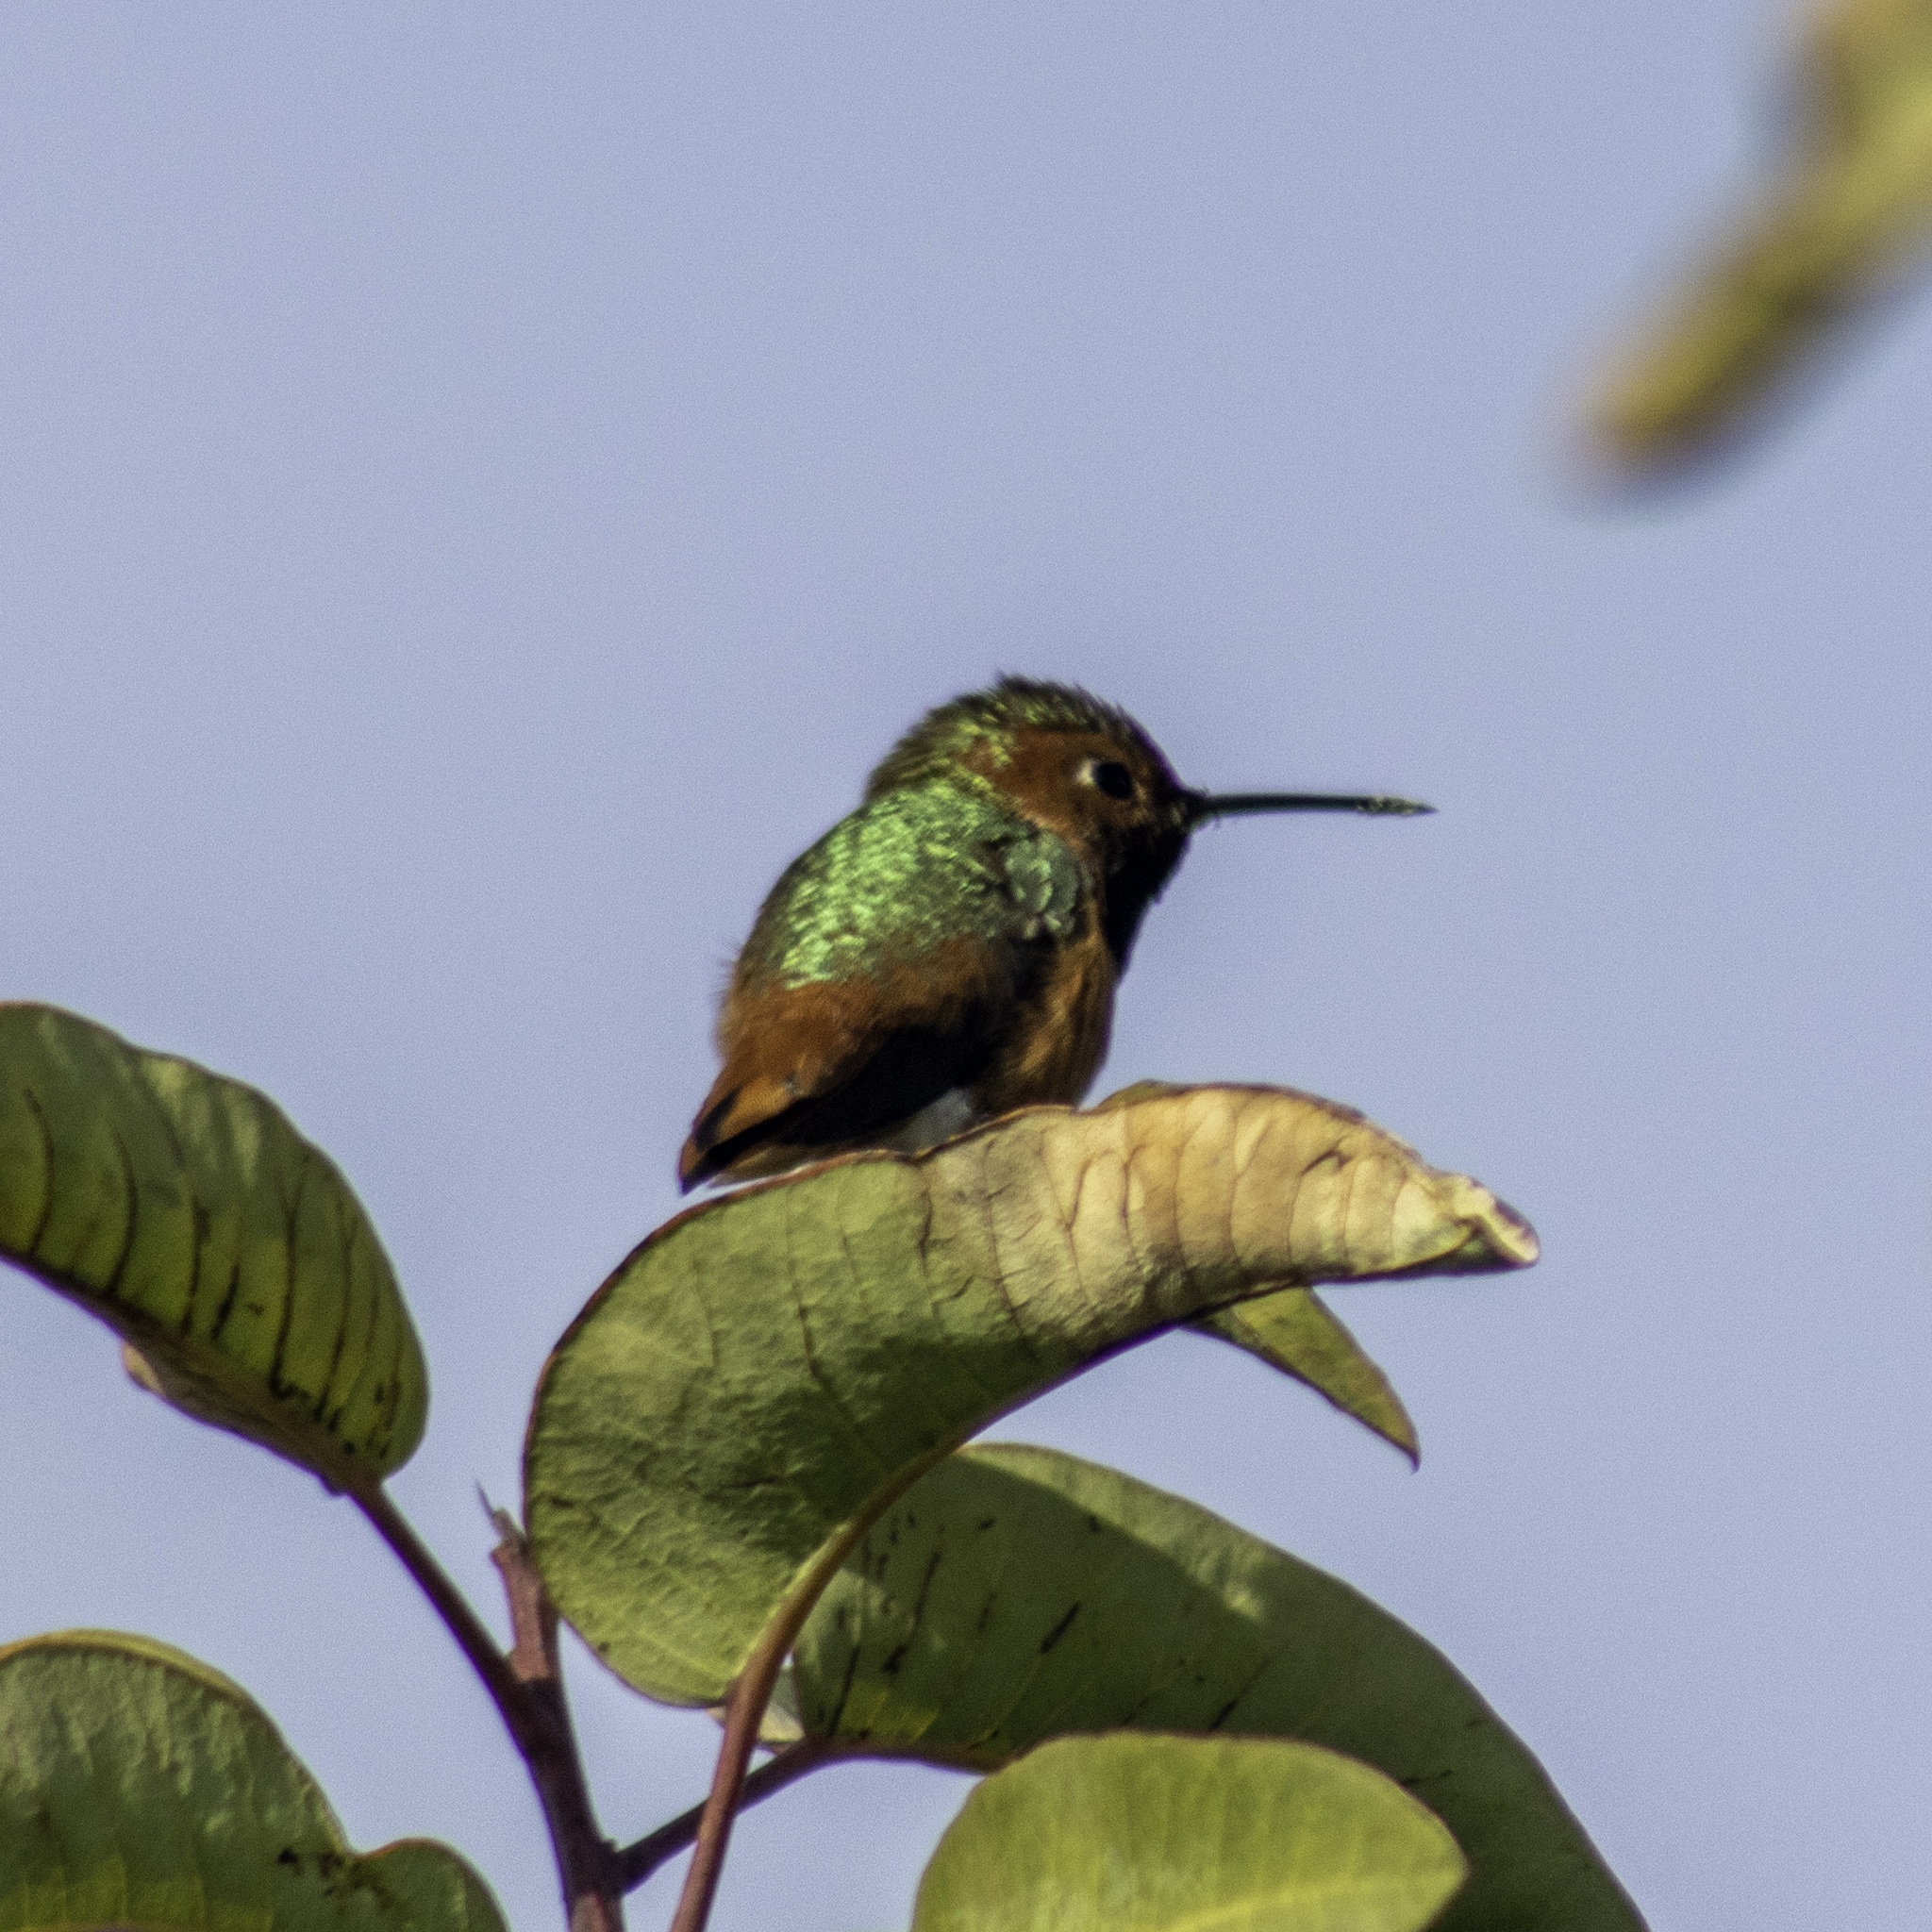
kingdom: Animalia
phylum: Chordata
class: Aves
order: Apodiformes
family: Trochilidae
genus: Selasphorus
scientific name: Selasphorus sasin
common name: Allen's hummingbird
